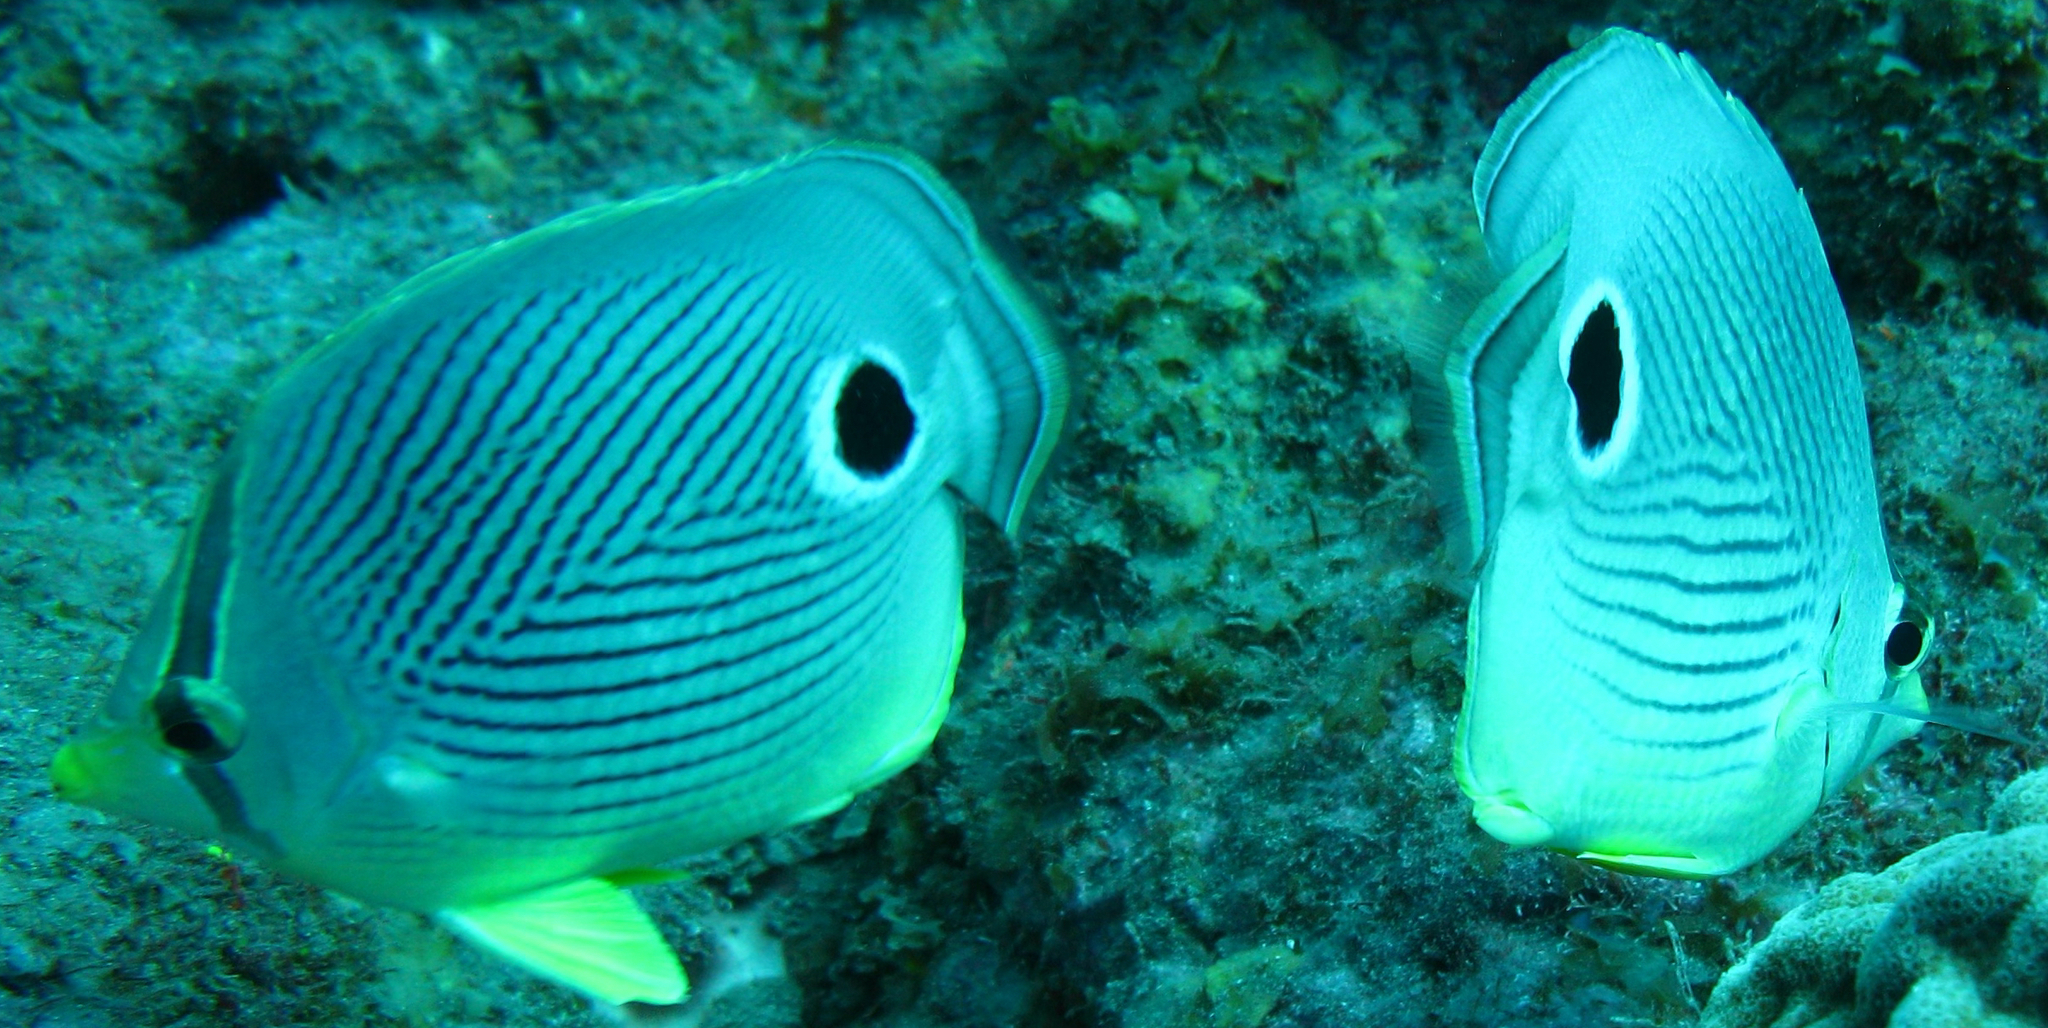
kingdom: Animalia
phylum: Chordata
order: Perciformes
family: Chaetodontidae
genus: Chaetodon
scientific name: Chaetodon capistratus
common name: Kete
